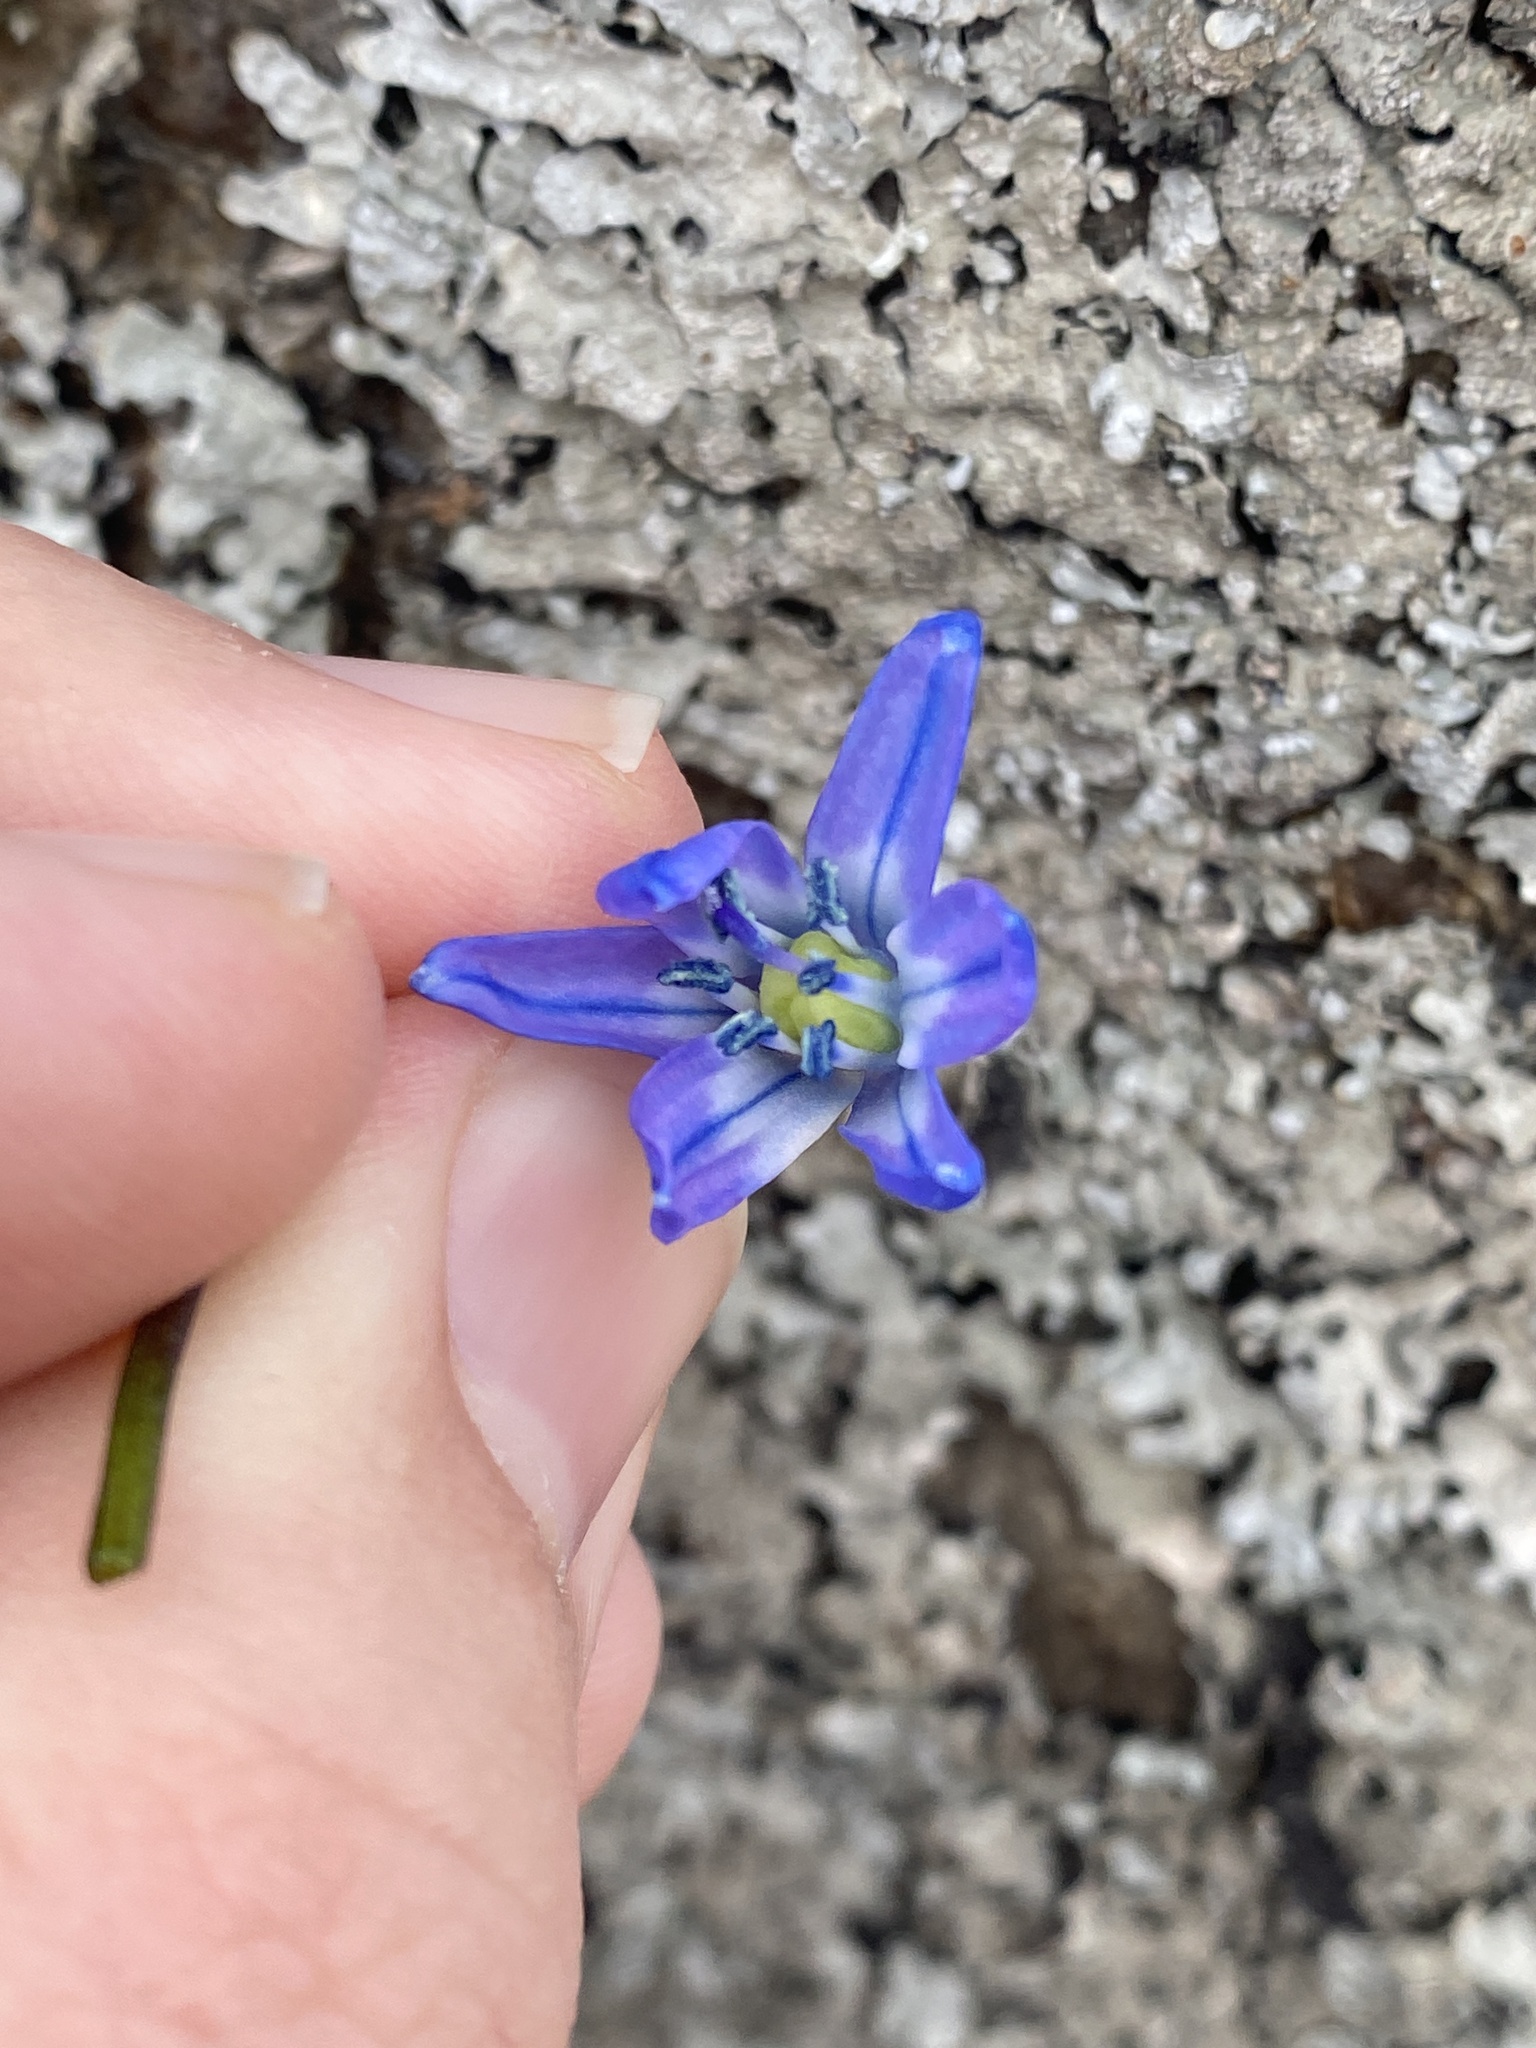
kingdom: Plantae
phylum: Tracheophyta
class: Liliopsida
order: Asparagales
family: Asparagaceae
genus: Scilla
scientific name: Scilla siberica
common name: Siberian squill
